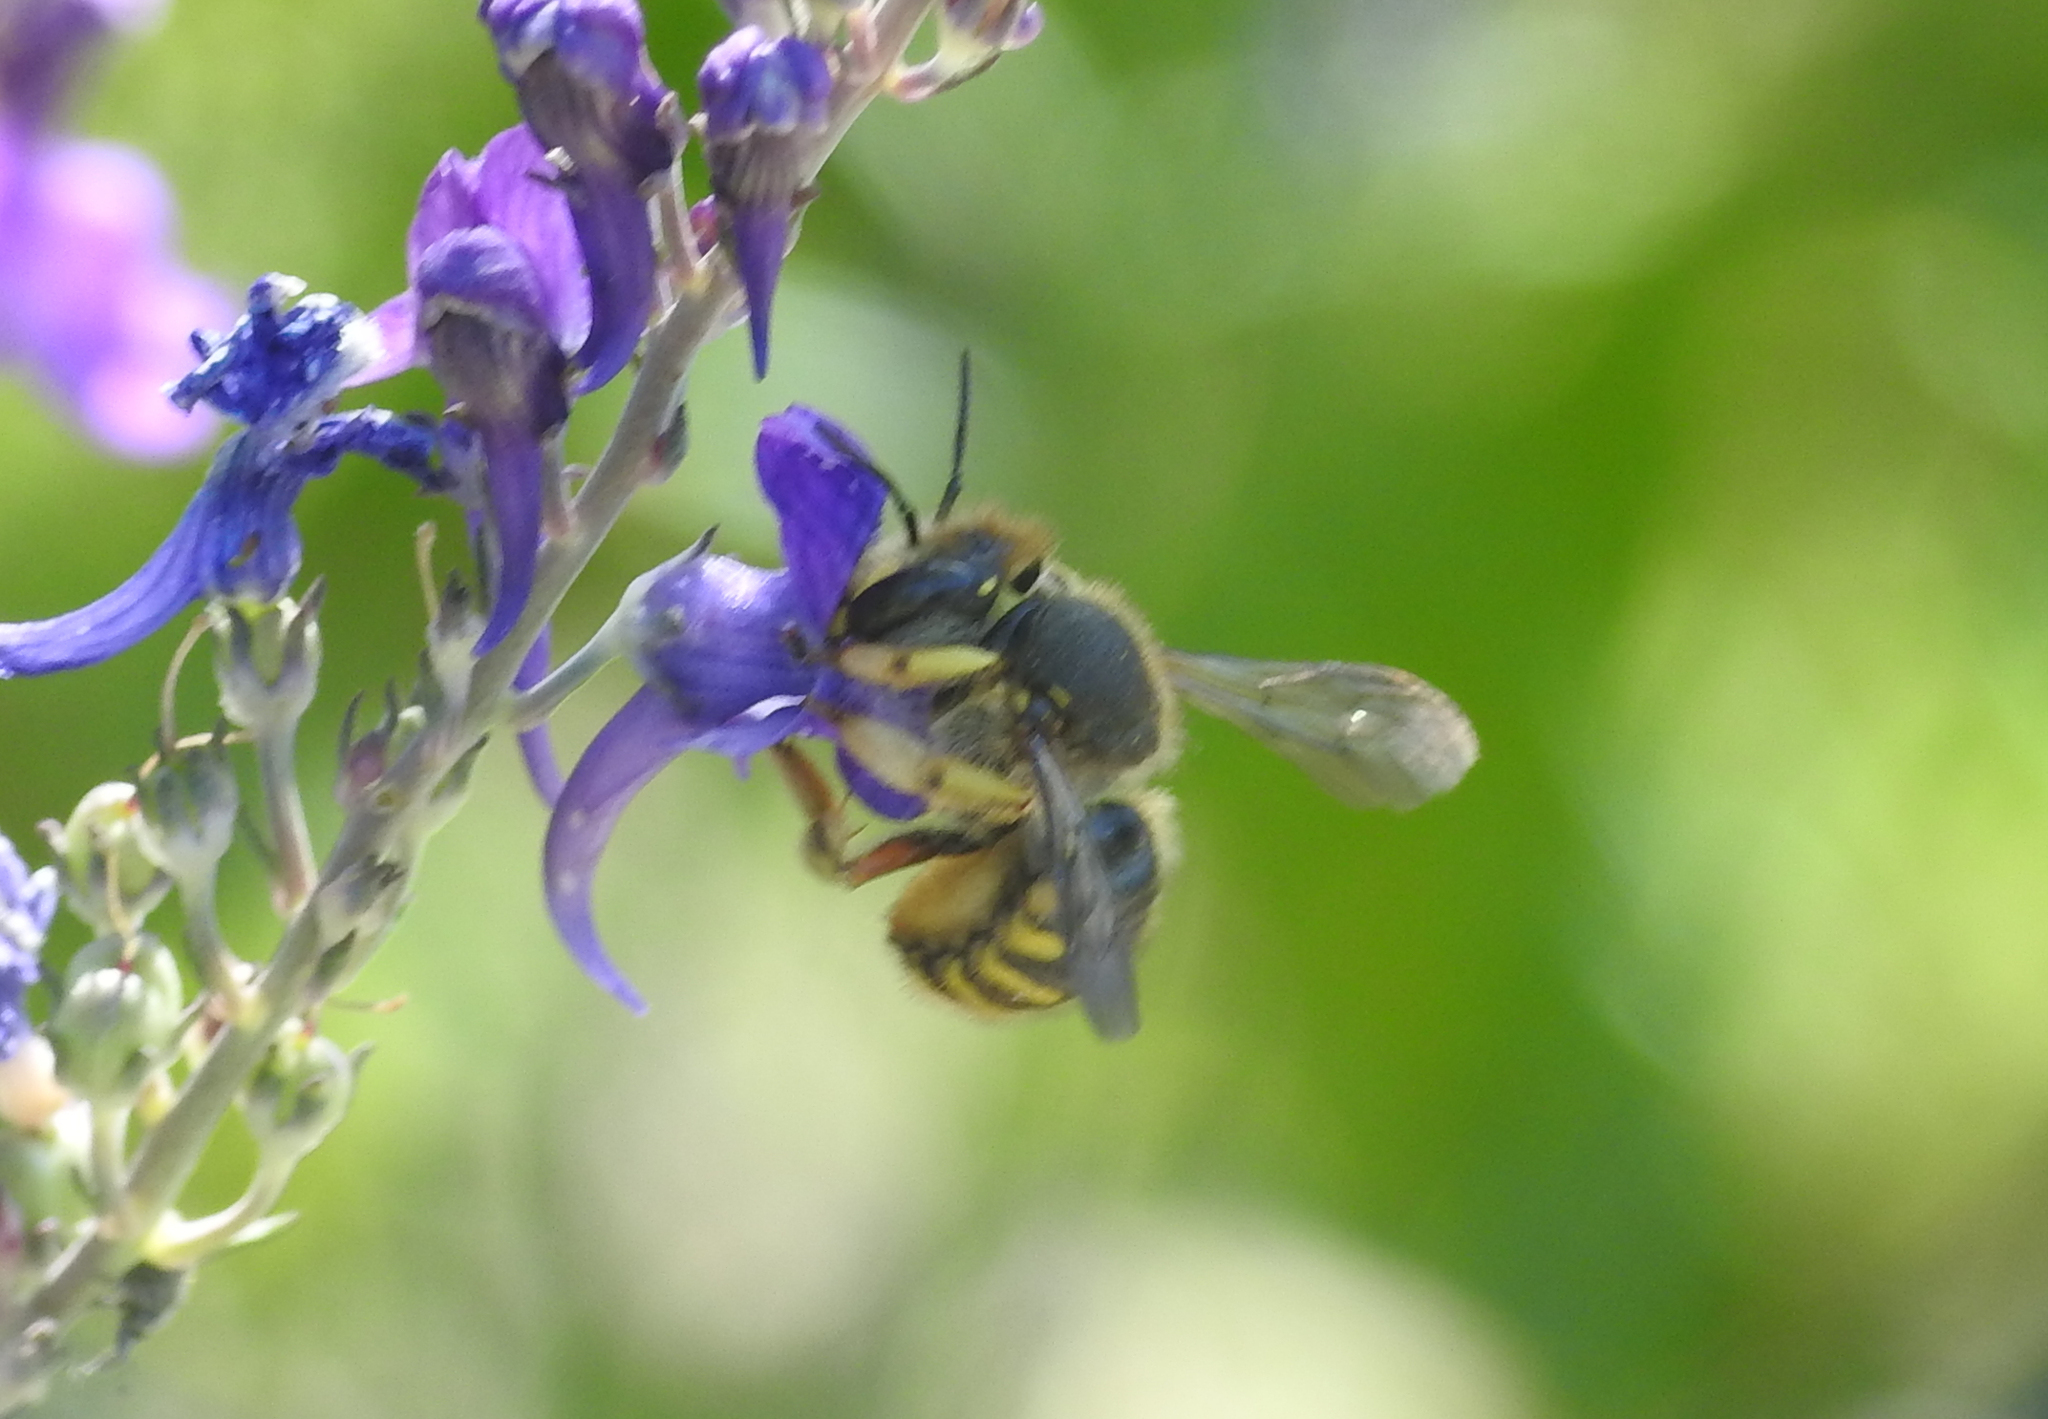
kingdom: Animalia
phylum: Arthropoda
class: Insecta
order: Hymenoptera
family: Megachilidae
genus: Anthidium
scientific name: Anthidium manicatum
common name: Wool carder bee
